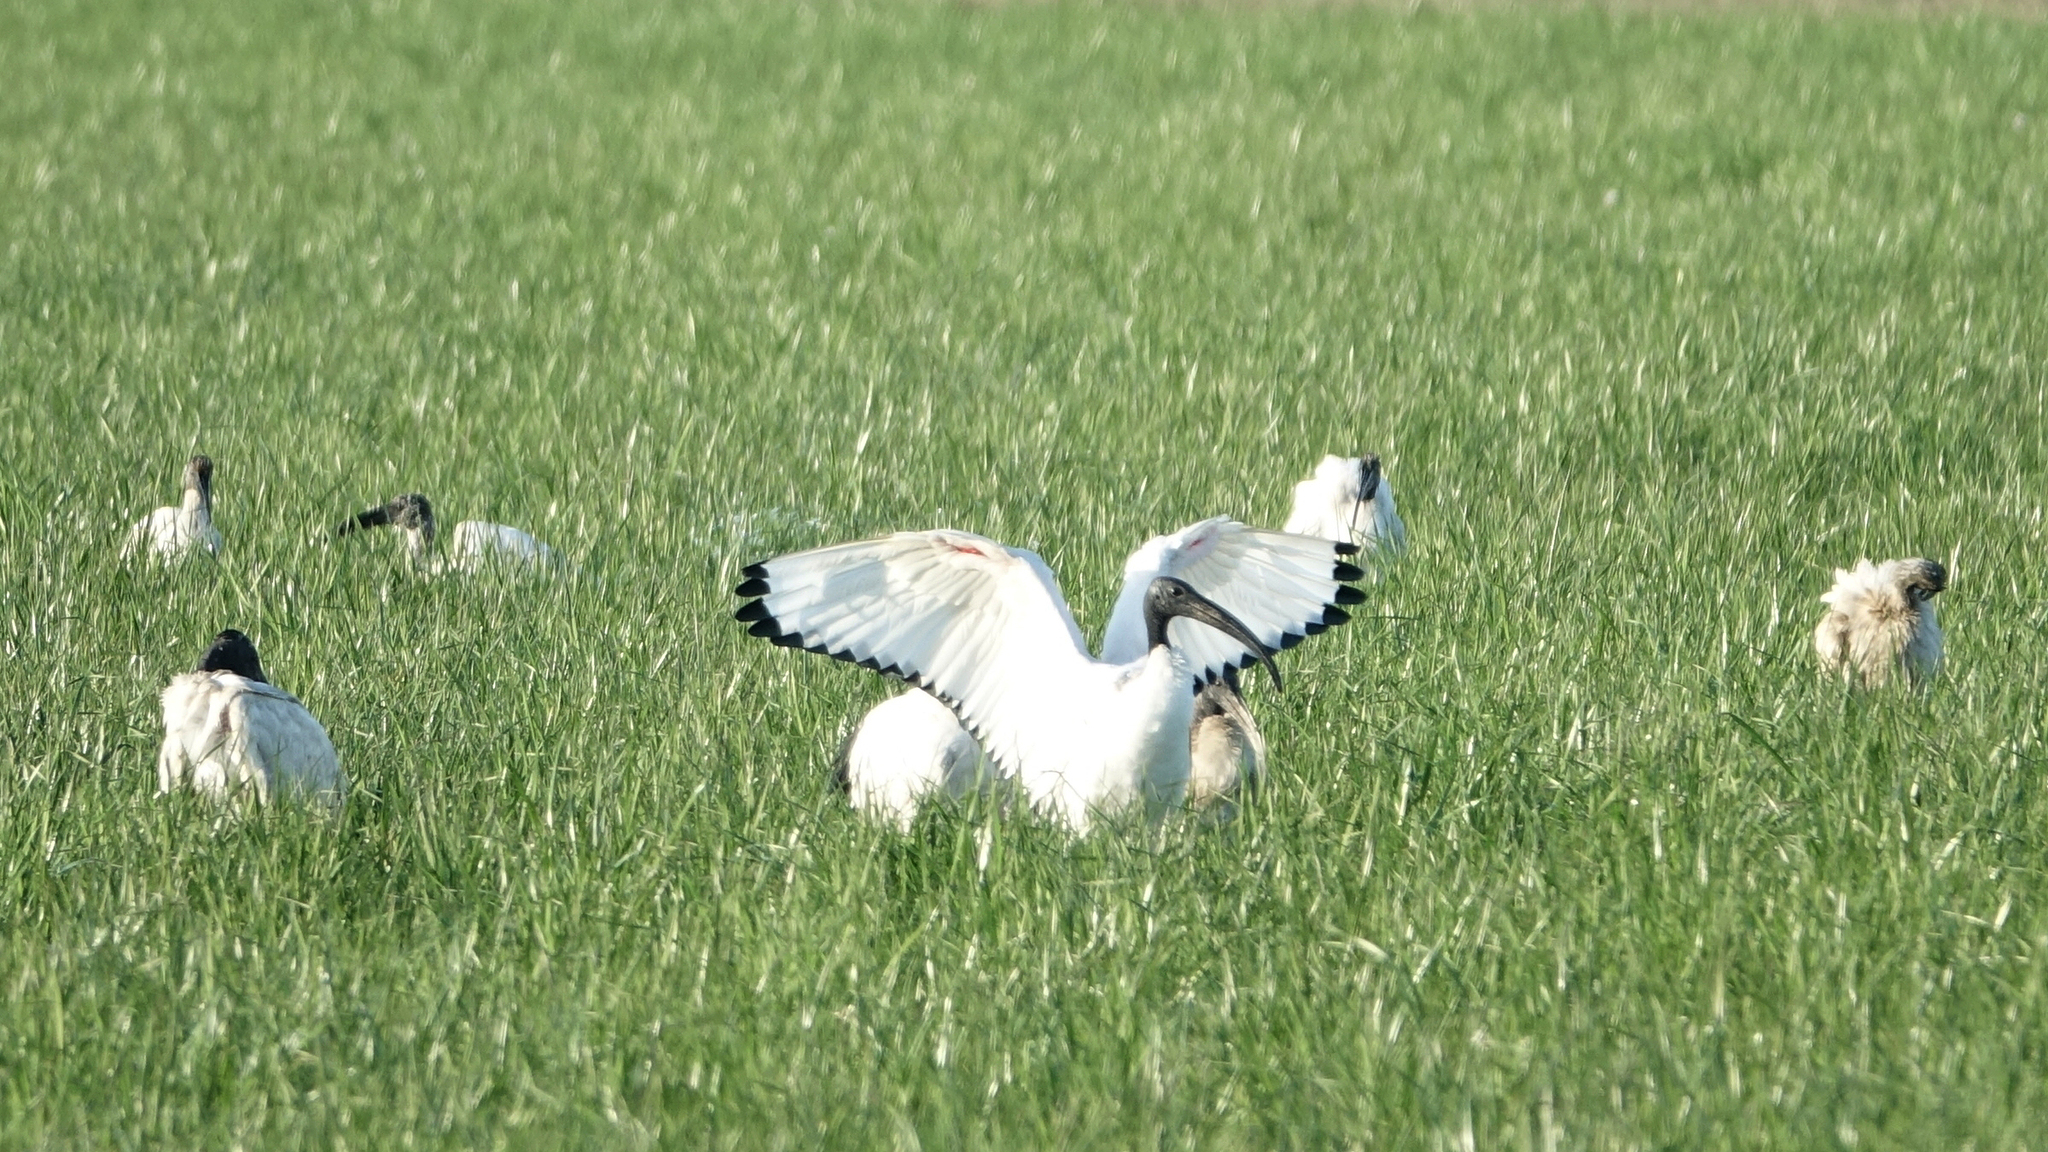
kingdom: Animalia
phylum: Chordata
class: Aves
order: Pelecaniformes
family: Threskiornithidae
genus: Threskiornis
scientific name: Threskiornis aethiopicus
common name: Sacred ibis
